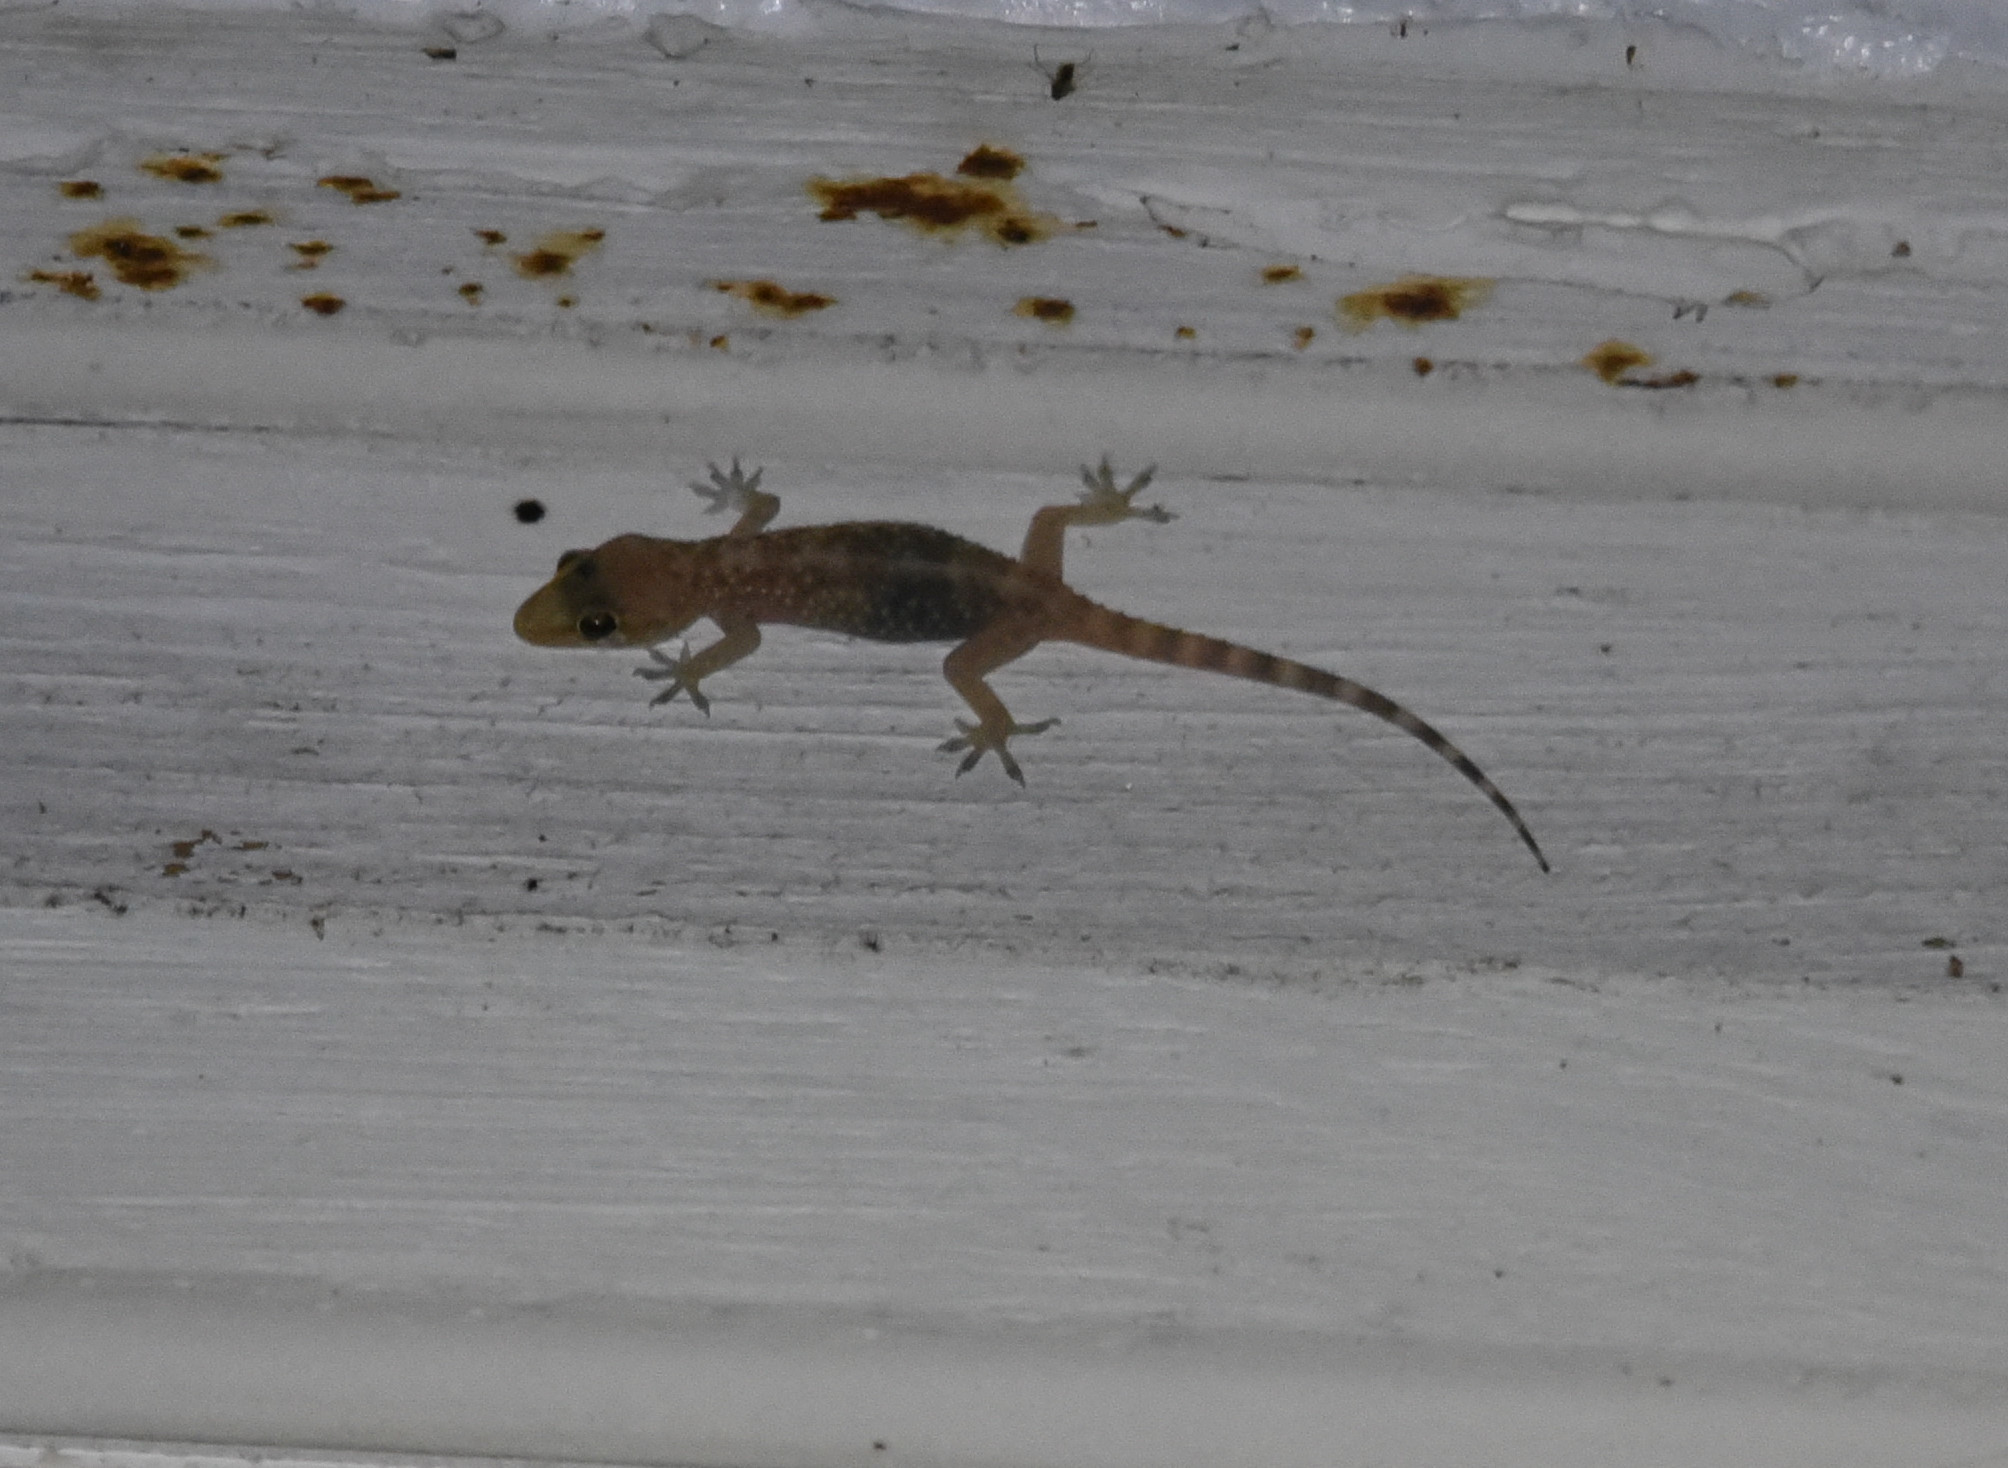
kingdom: Animalia
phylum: Chordata
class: Squamata
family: Gekkonidae
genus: Hemidactylus
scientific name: Hemidactylus turcicus
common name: Turkish gecko
